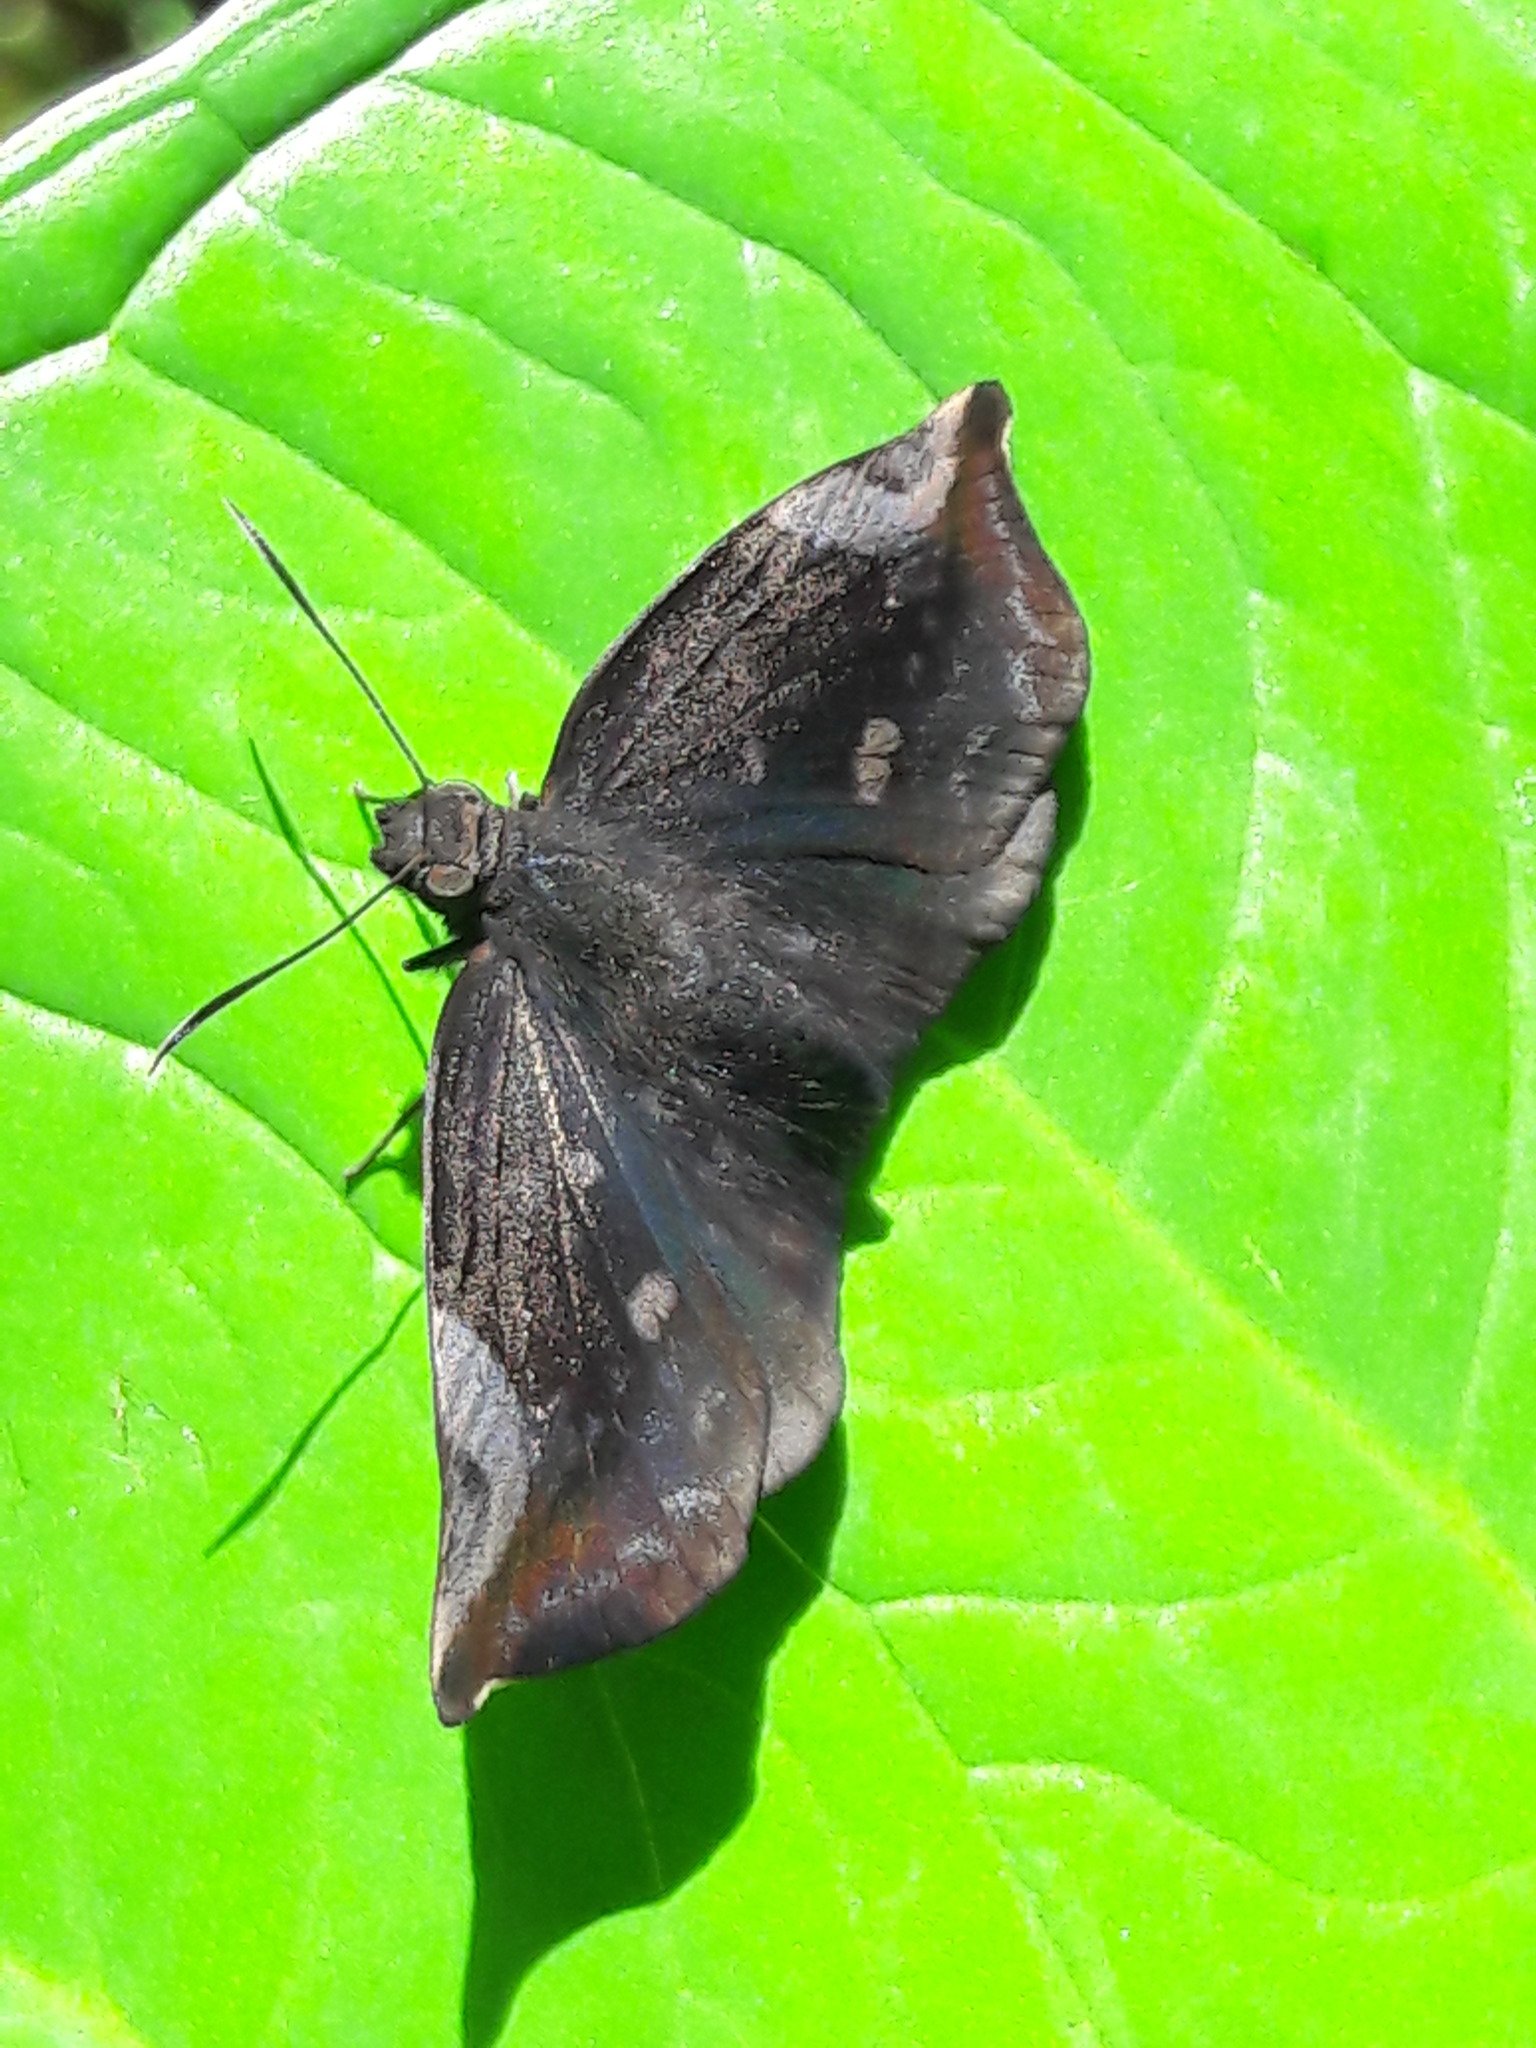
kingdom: Animalia
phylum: Arthropoda
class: Insecta
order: Lepidoptera
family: Hesperiidae
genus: Achlyodes
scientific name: Achlyodes thraso
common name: Sickle-winged skipper
